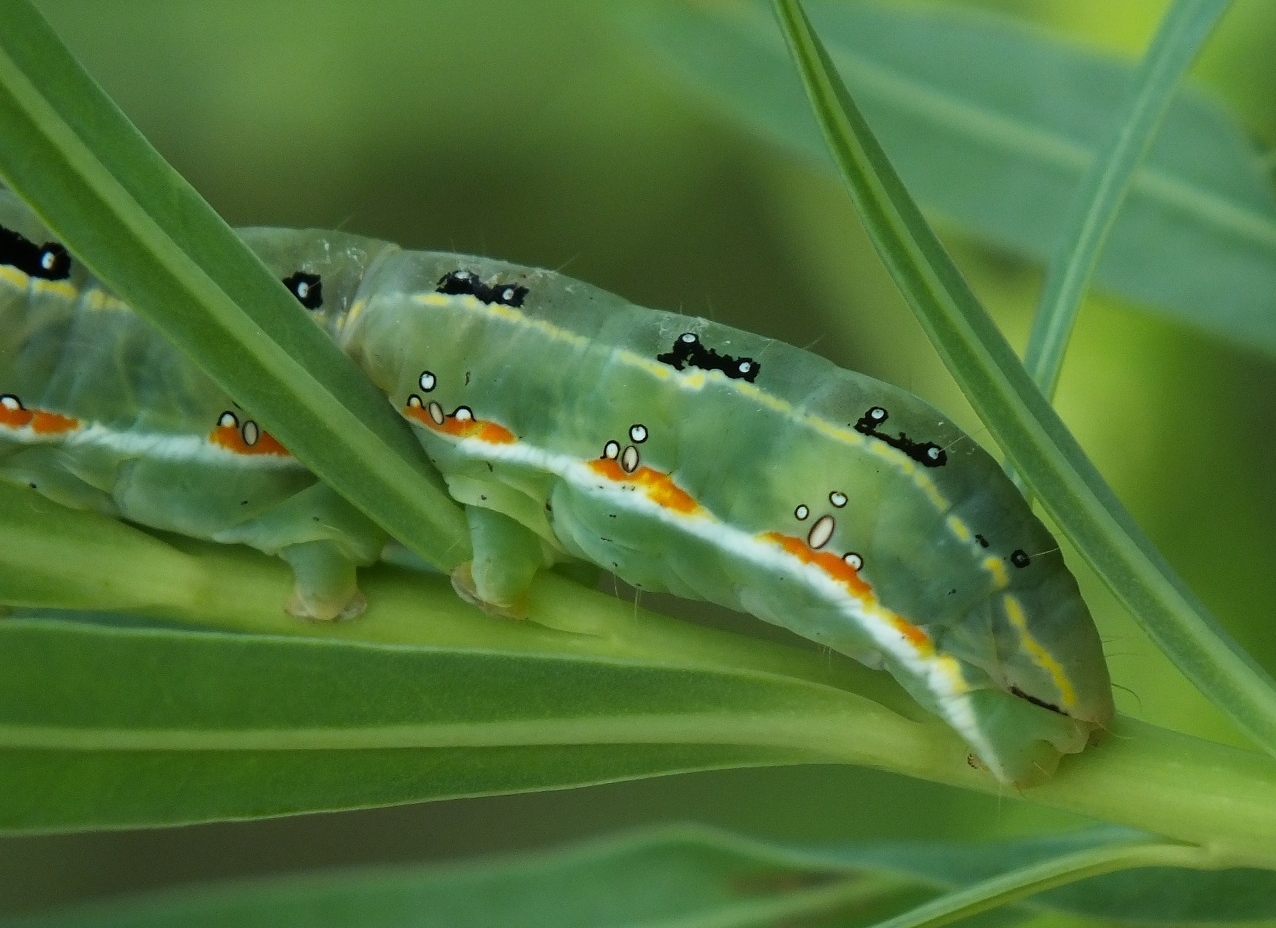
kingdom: Animalia
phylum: Arthropoda
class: Insecta
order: Lepidoptera
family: Noctuidae
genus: Xylena
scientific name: Xylena exsoleta
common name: Sword-grass
